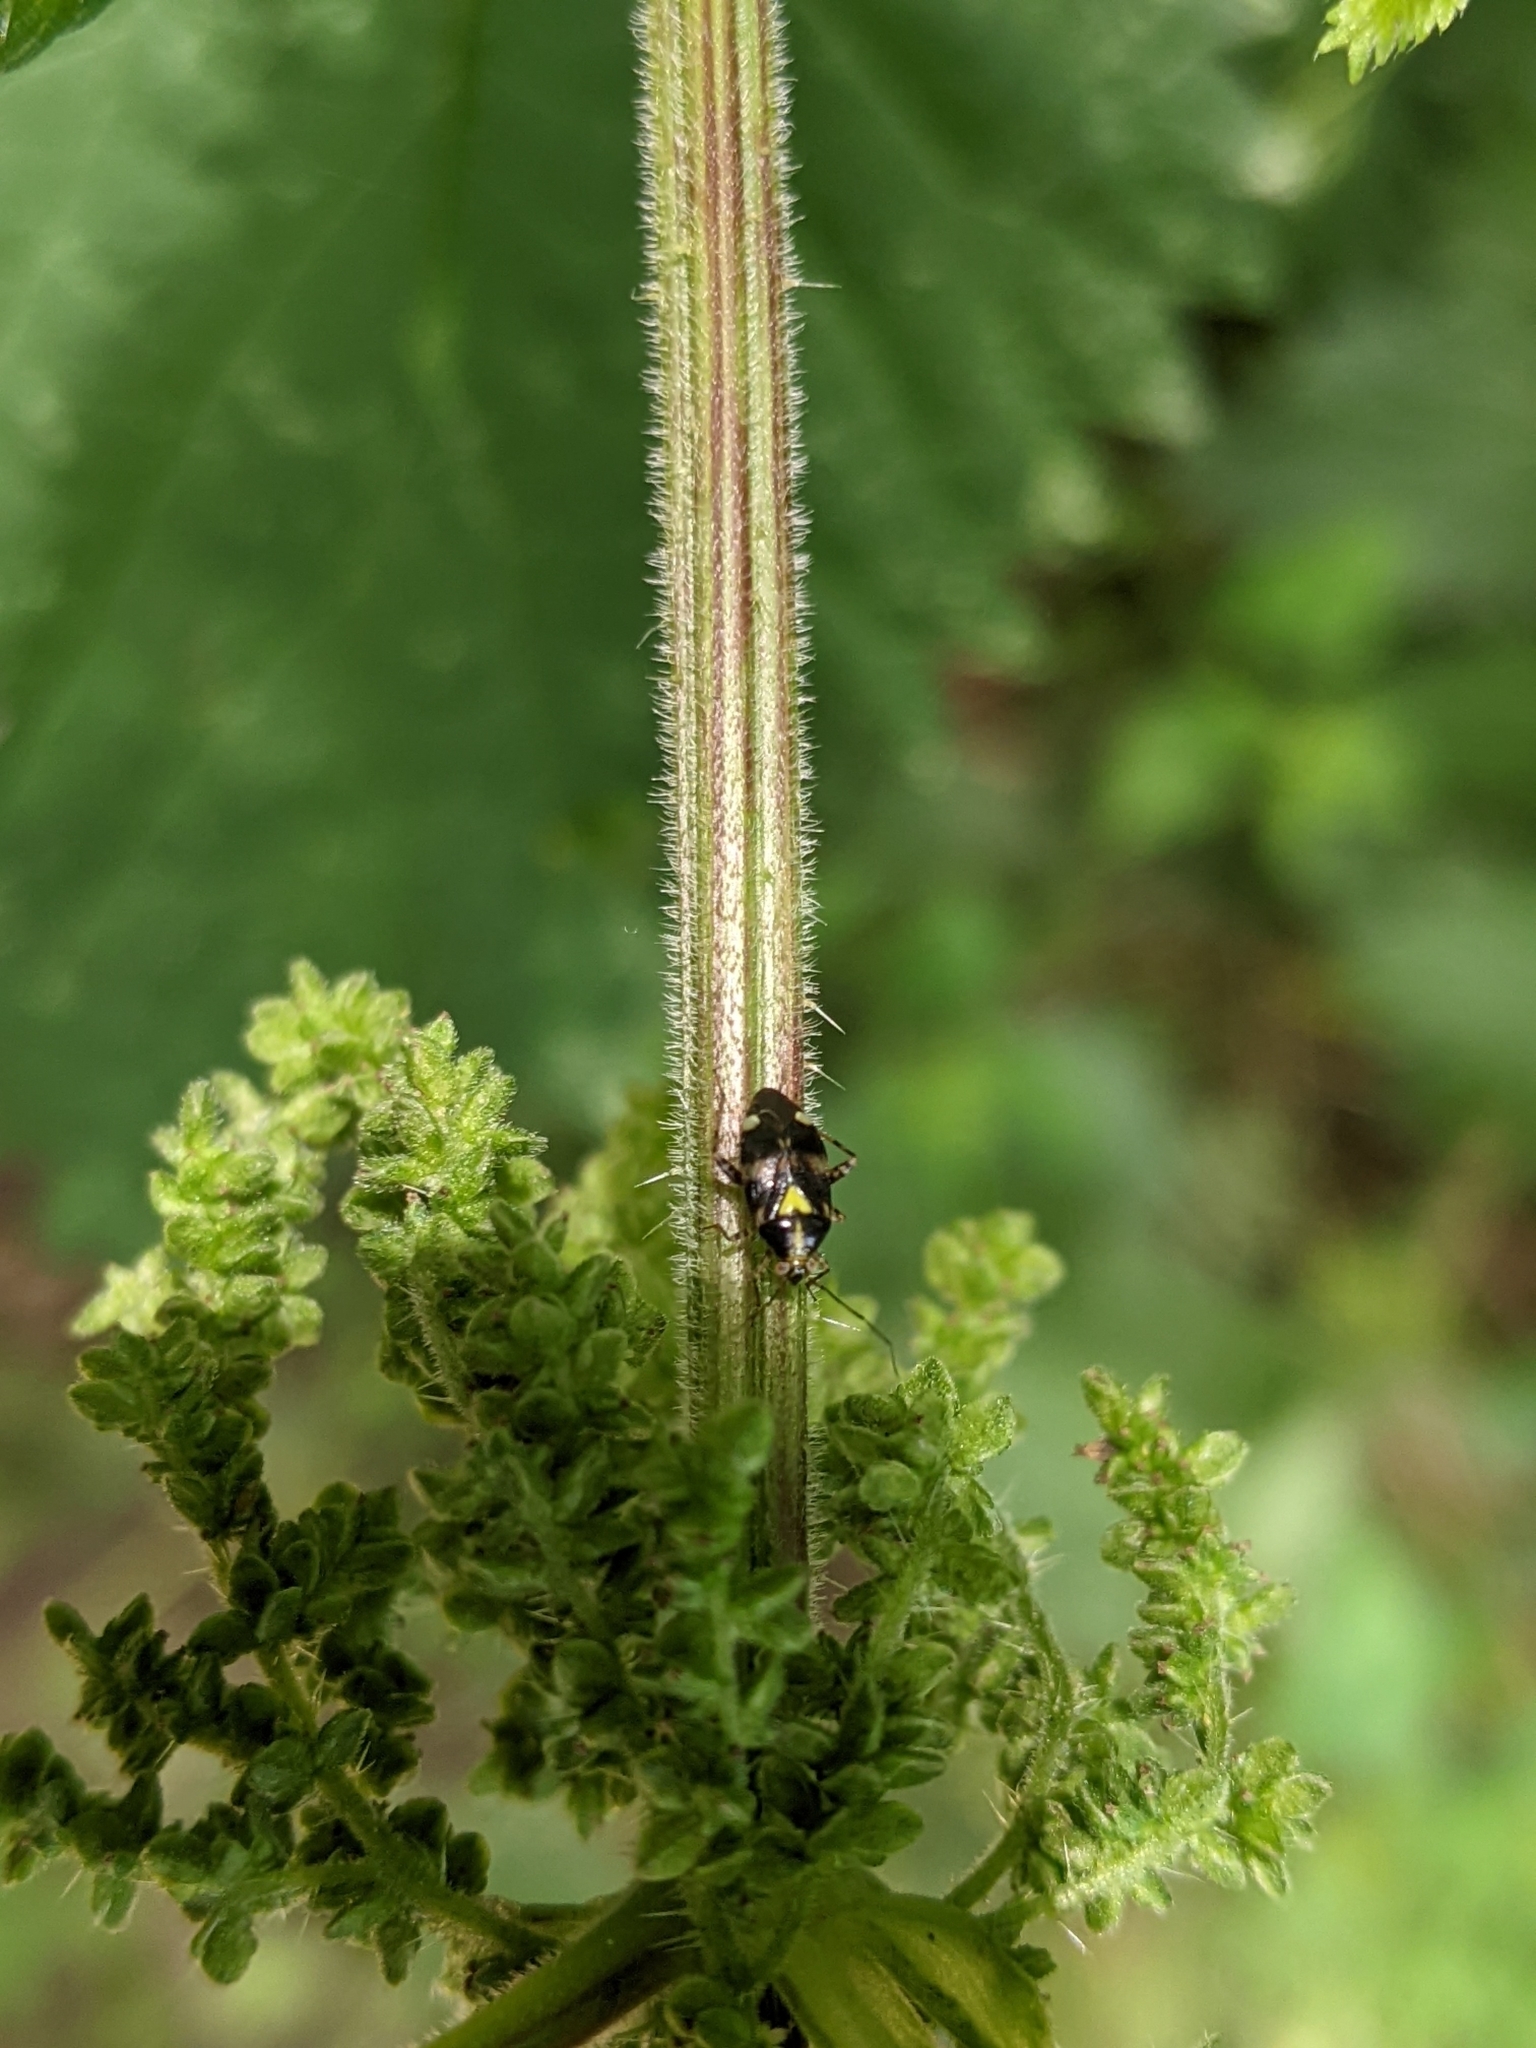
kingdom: Animalia
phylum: Arthropoda
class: Insecta
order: Hemiptera
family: Miridae
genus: Liocoris
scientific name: Liocoris tripustulatus
